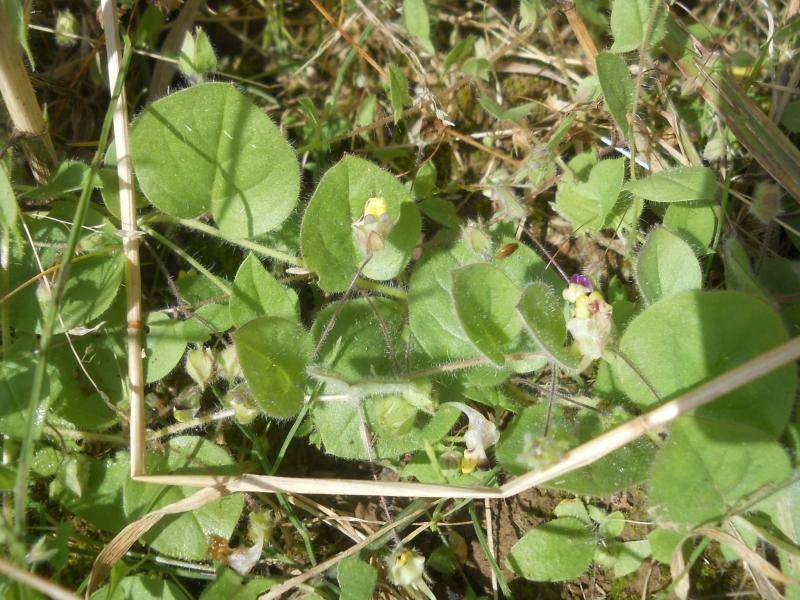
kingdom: Plantae
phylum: Tracheophyta
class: Magnoliopsida
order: Lamiales
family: Plantaginaceae
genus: Kickxia
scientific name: Kickxia spuria
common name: Round-leaved fluellen
